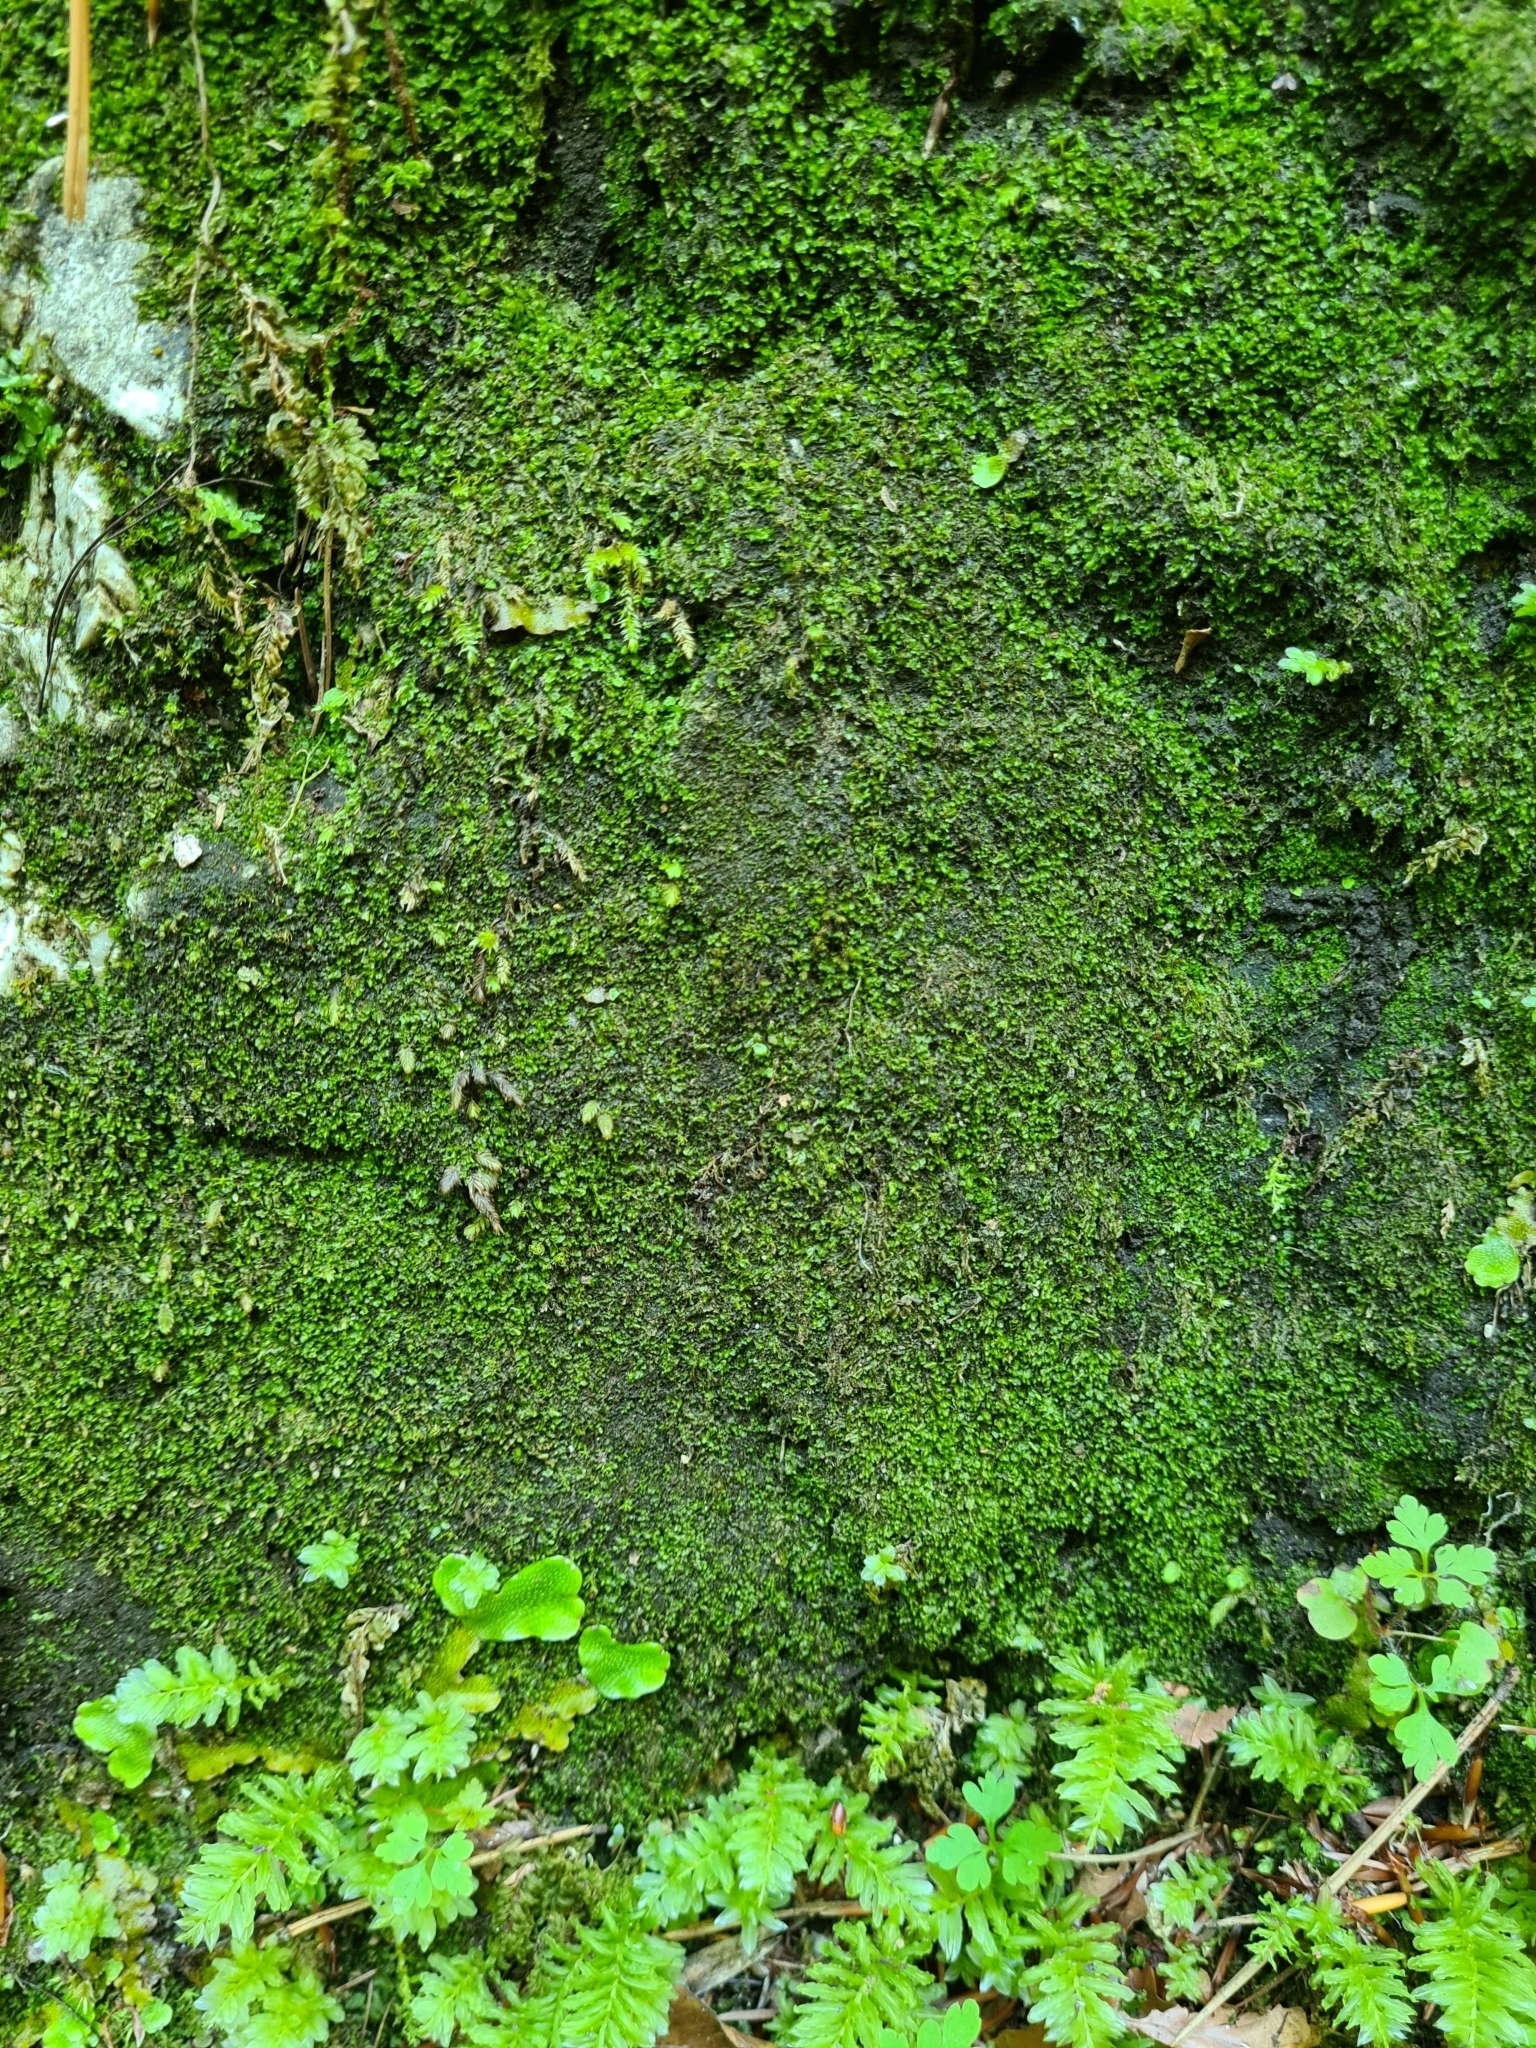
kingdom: Plantae
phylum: Marchantiophyta
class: Jungermanniopsida
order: Jungermanniales
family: Lophocoleaceae
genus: Chiloscyphus
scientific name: Chiloscyphus polyanthos
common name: Square-leaved crestwort
